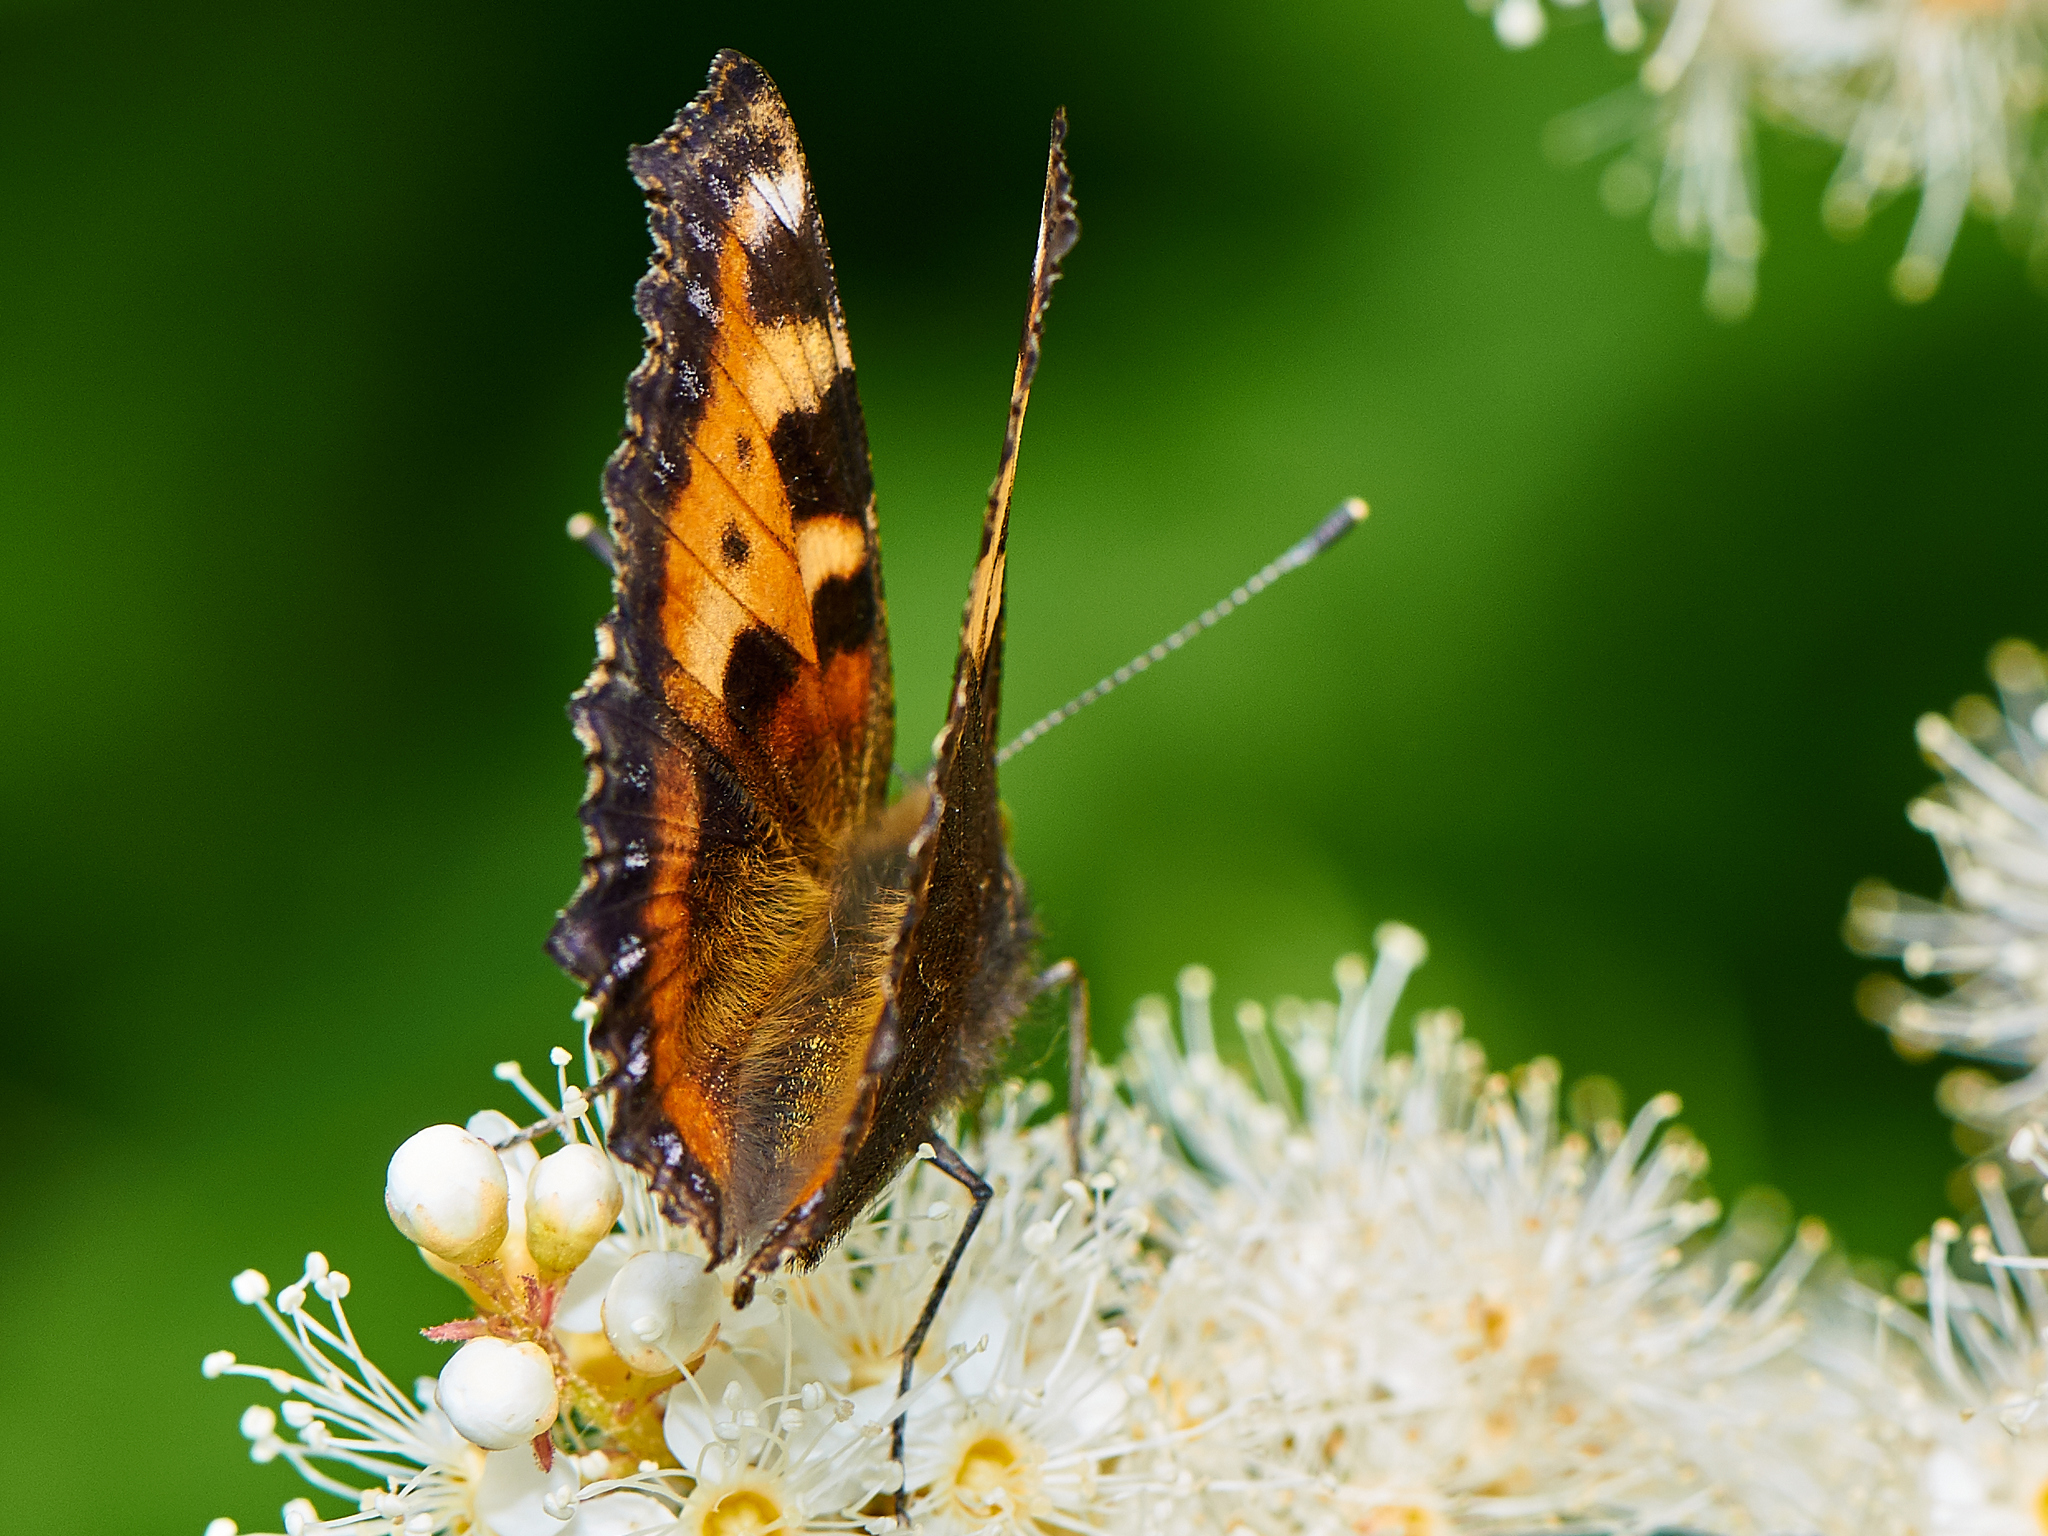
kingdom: Animalia
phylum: Arthropoda
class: Insecta
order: Lepidoptera
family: Nymphalidae
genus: Aglais
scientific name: Aglais urticae
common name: Small tortoiseshell
